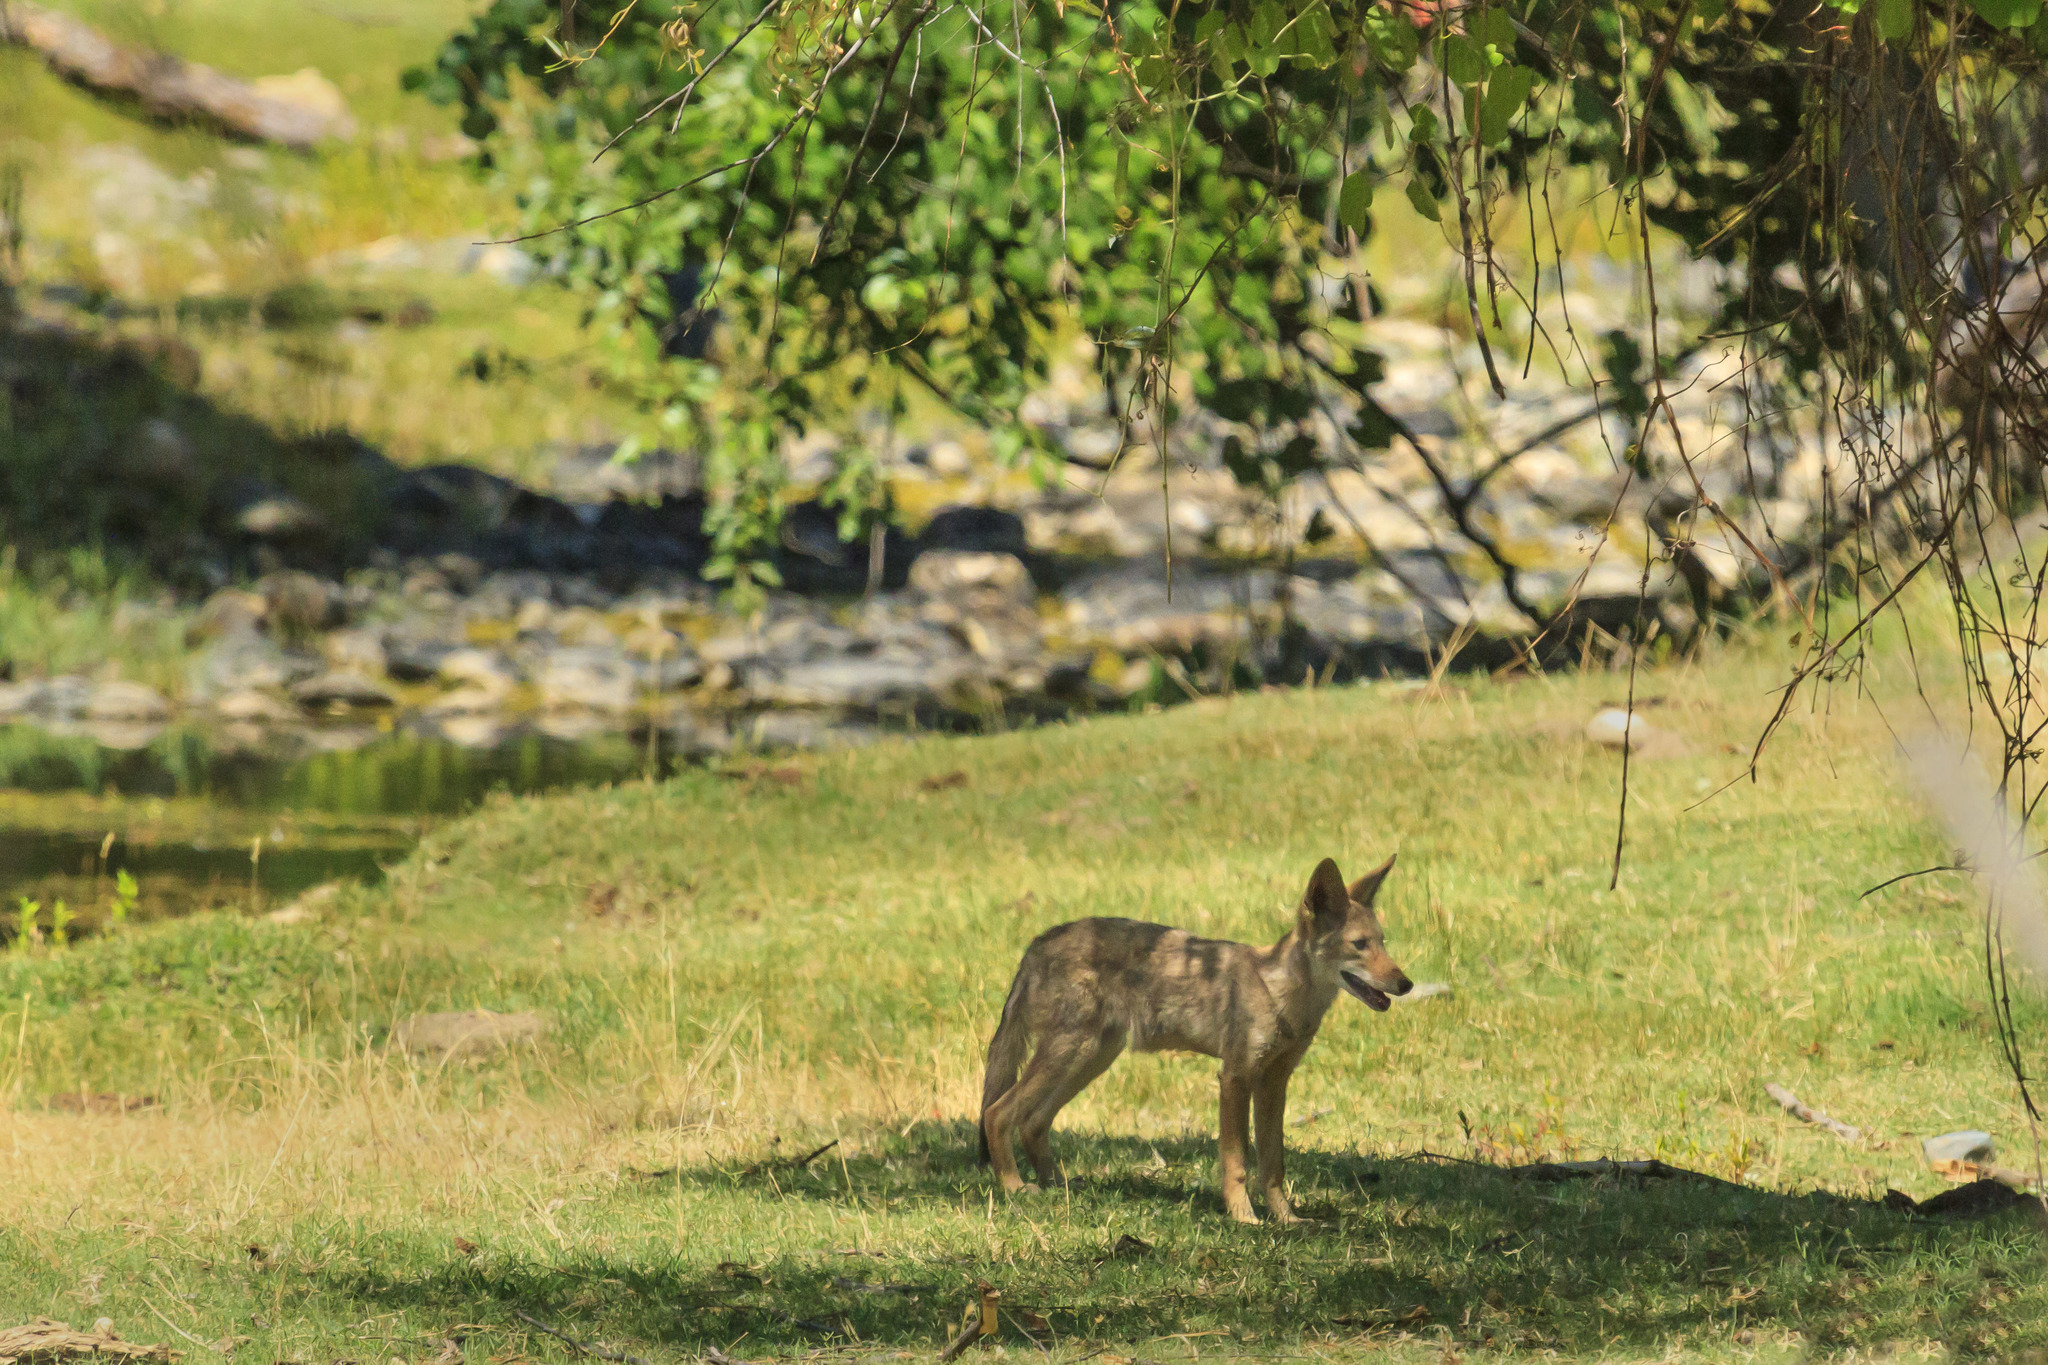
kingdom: Animalia
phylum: Chordata
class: Mammalia
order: Carnivora
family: Canidae
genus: Canis
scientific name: Canis latrans
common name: Coyote
